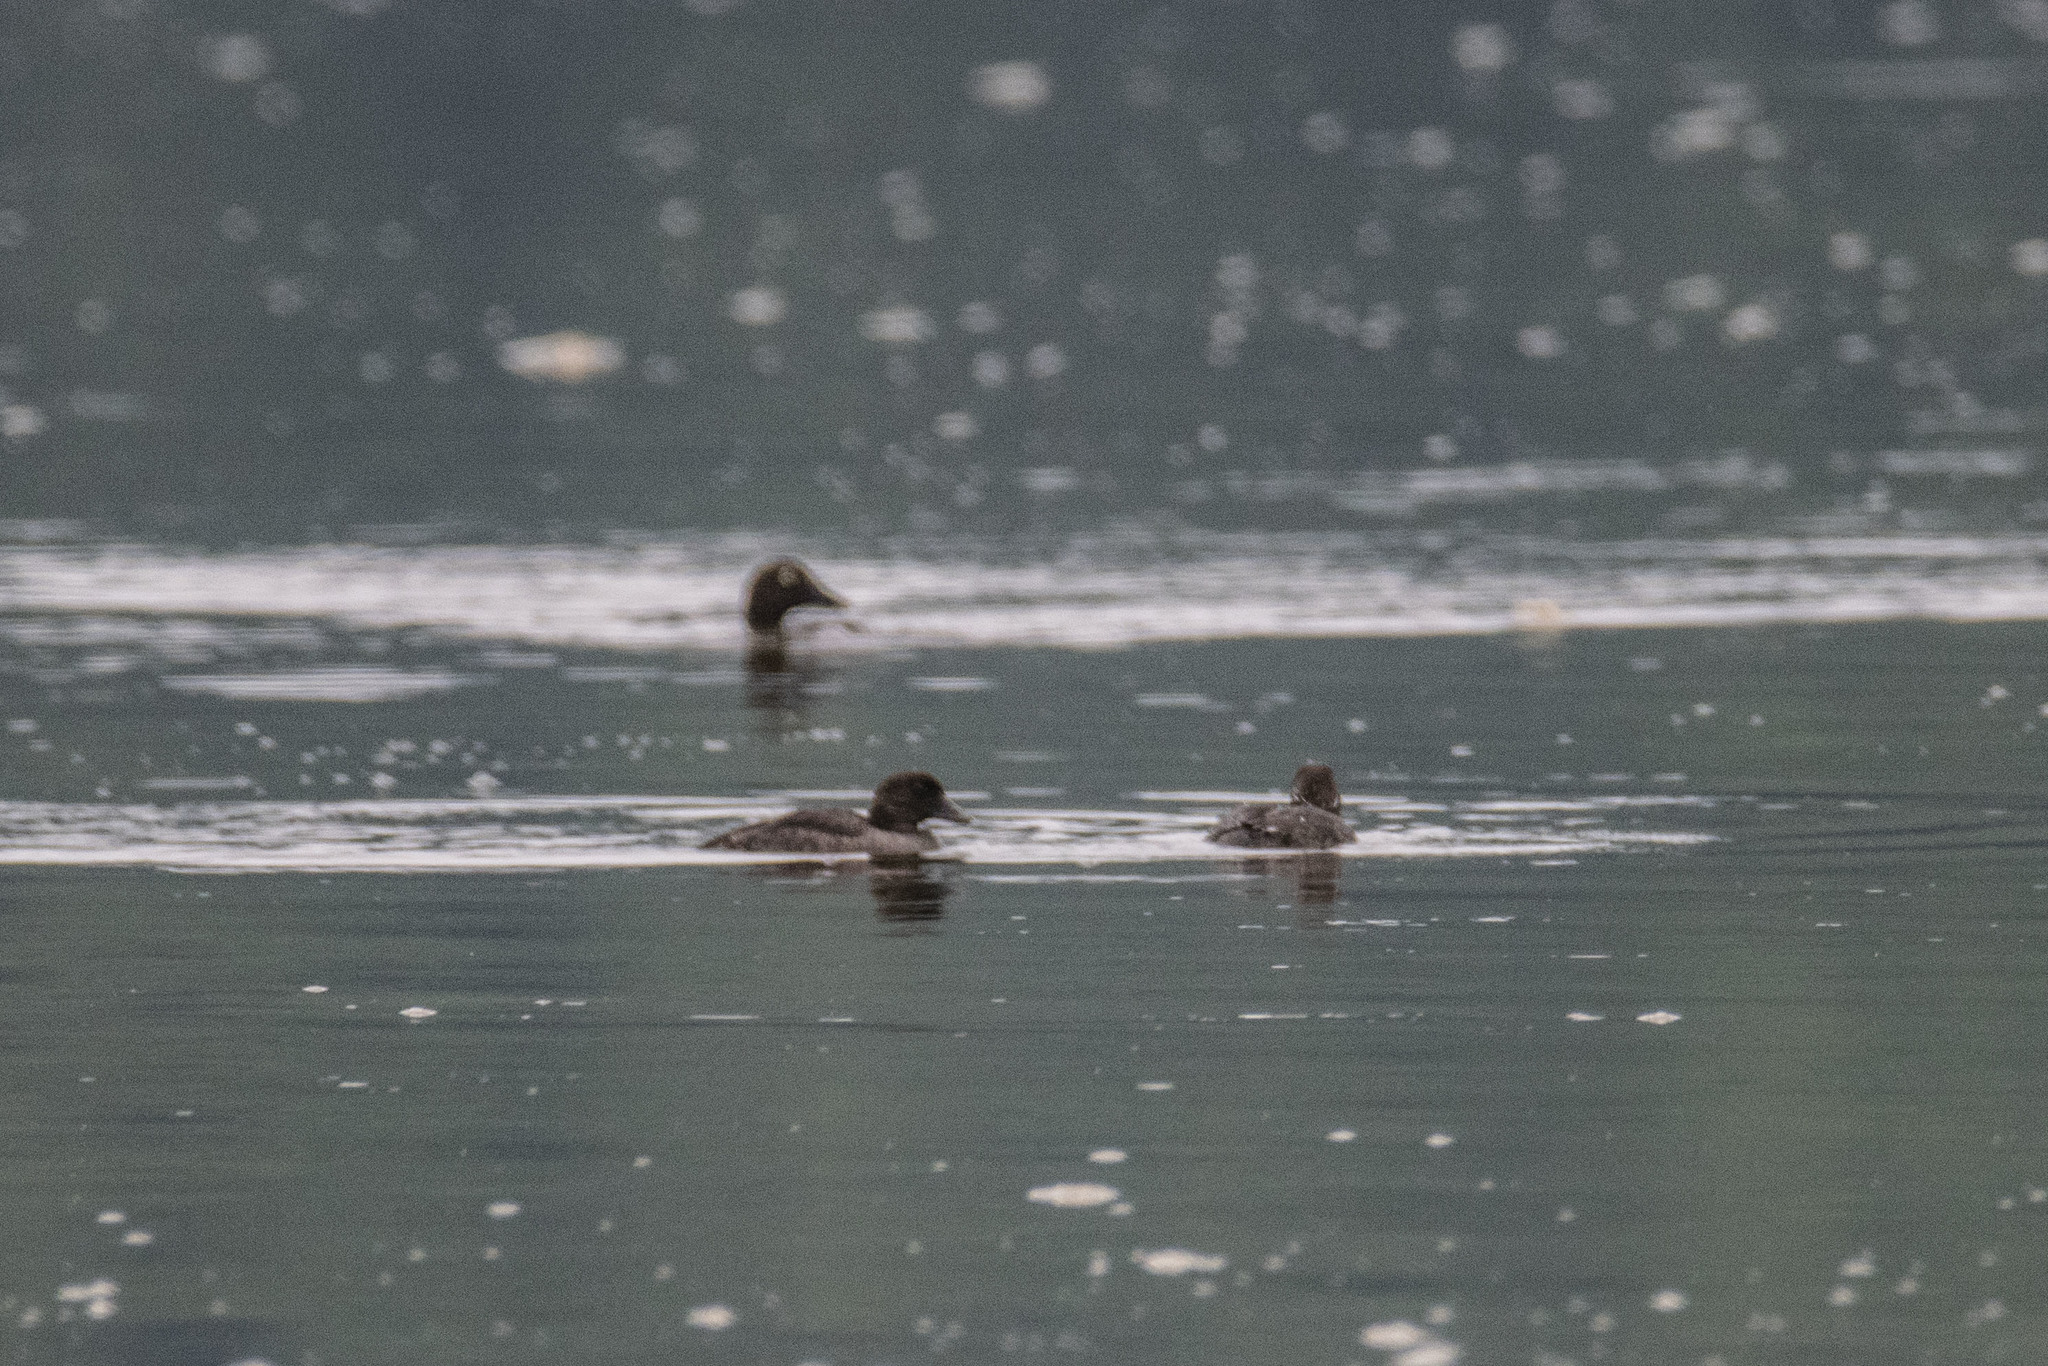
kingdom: Animalia
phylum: Chordata
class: Aves
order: Anseriformes
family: Anatidae
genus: Bucephala
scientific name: Bucephala clangula
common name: Common goldeneye
